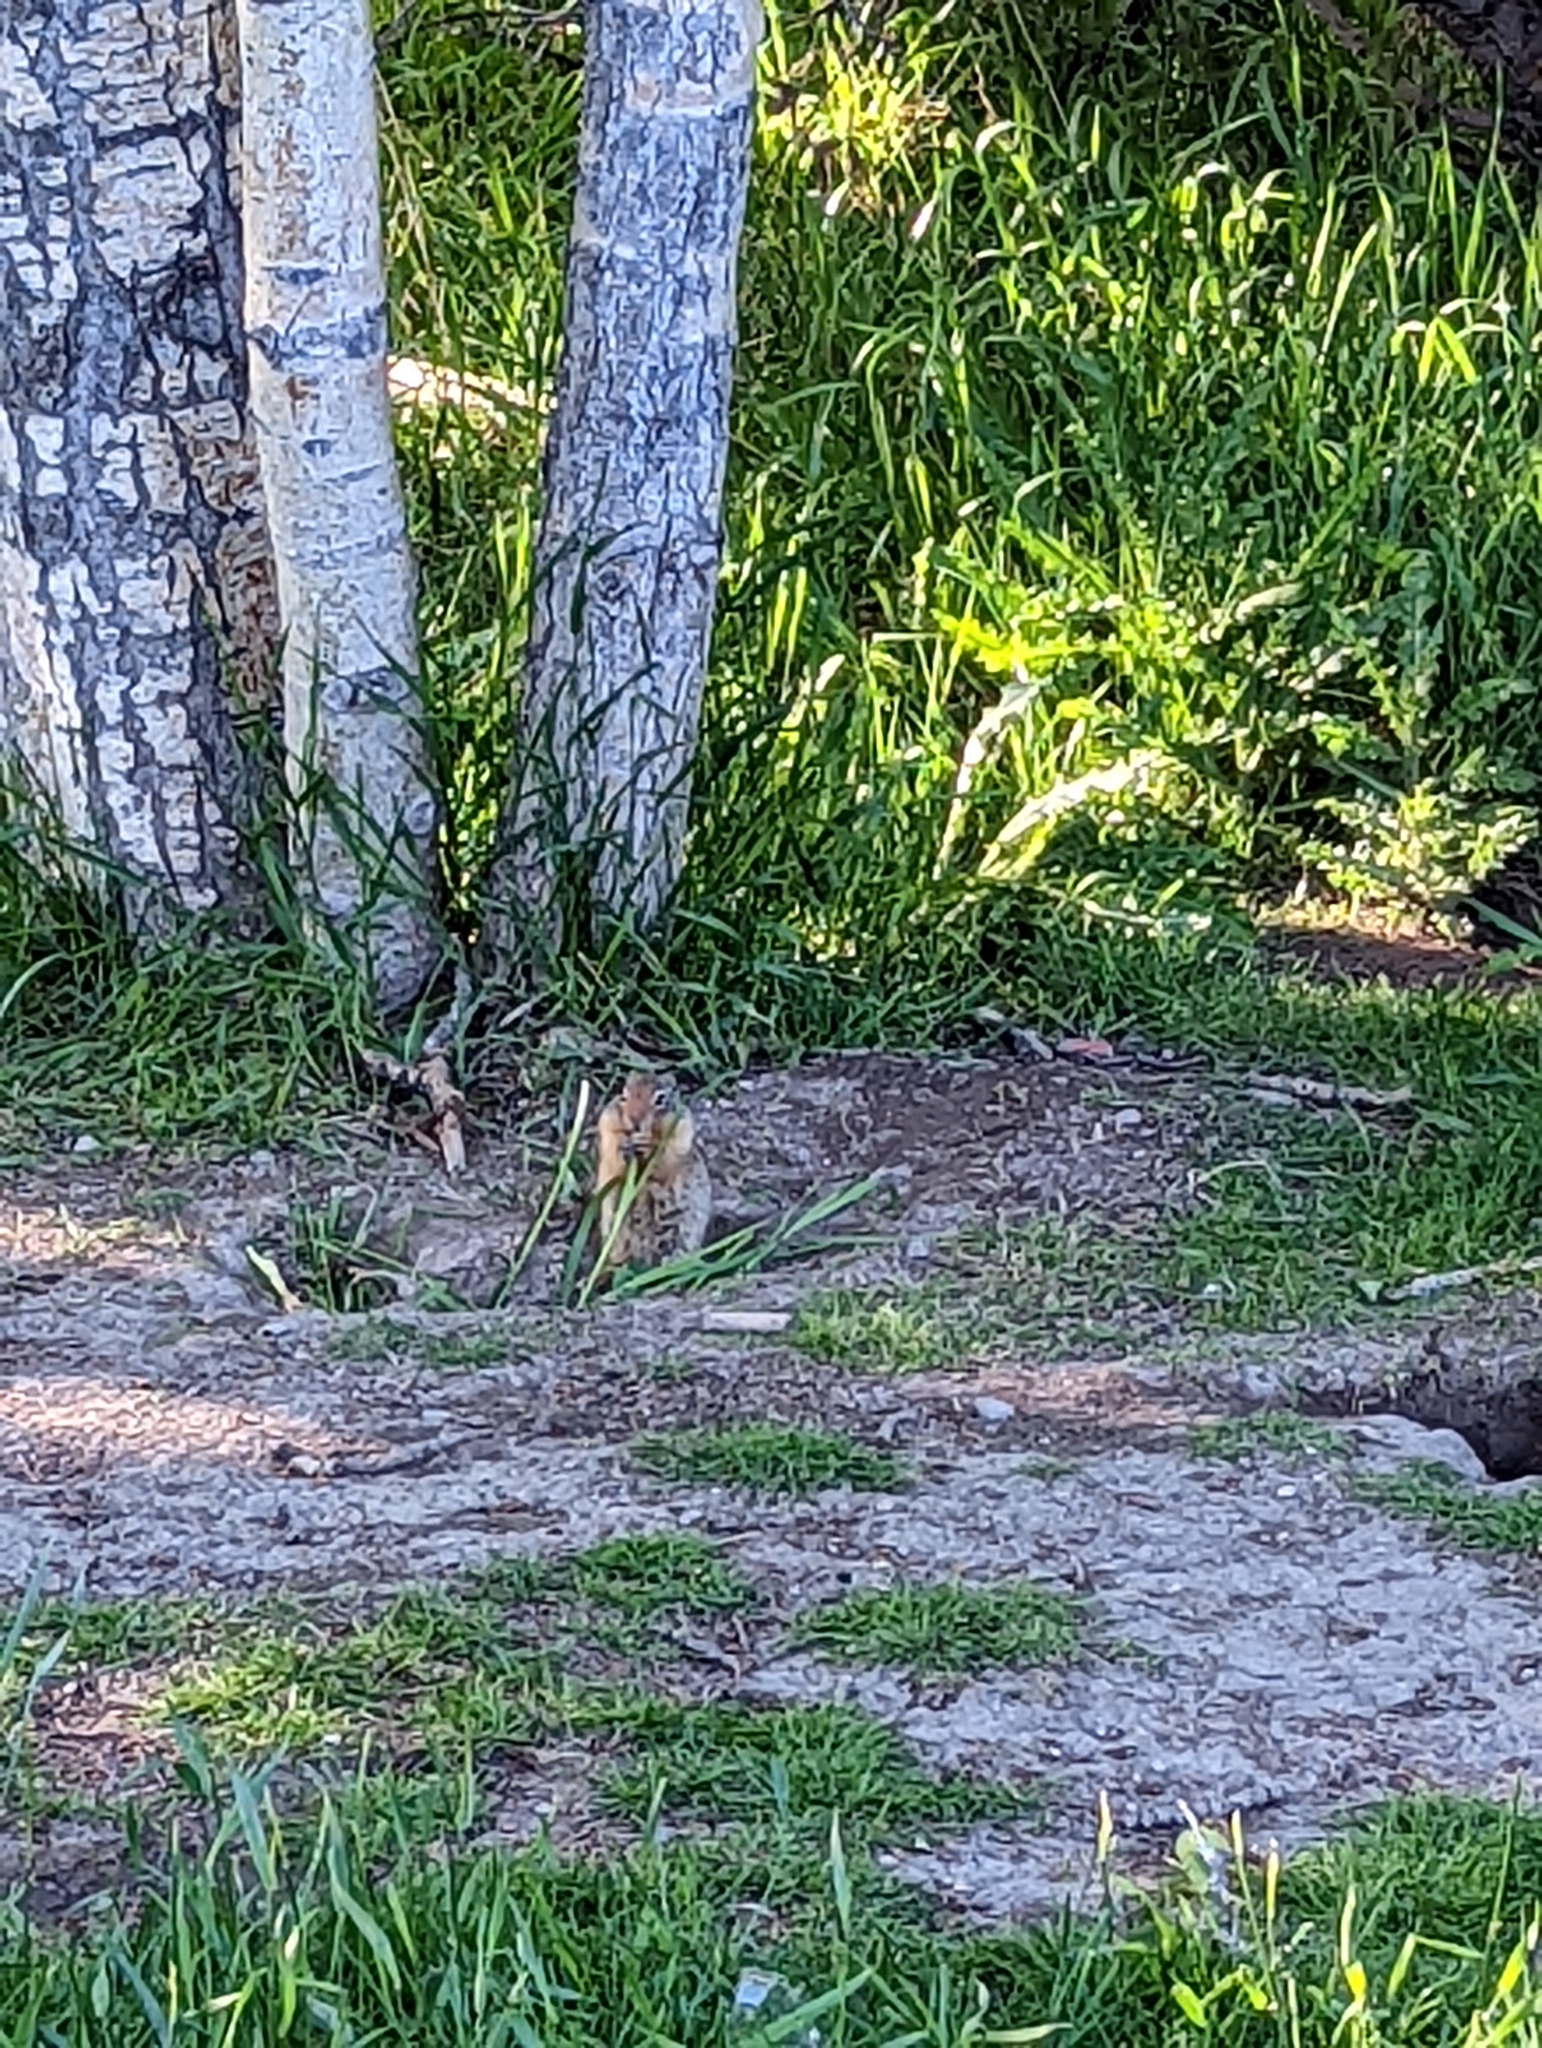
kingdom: Animalia
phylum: Chordata
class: Mammalia
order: Rodentia
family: Sciuridae
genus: Urocitellus
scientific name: Urocitellus columbianus
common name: Columbian ground squirrel
